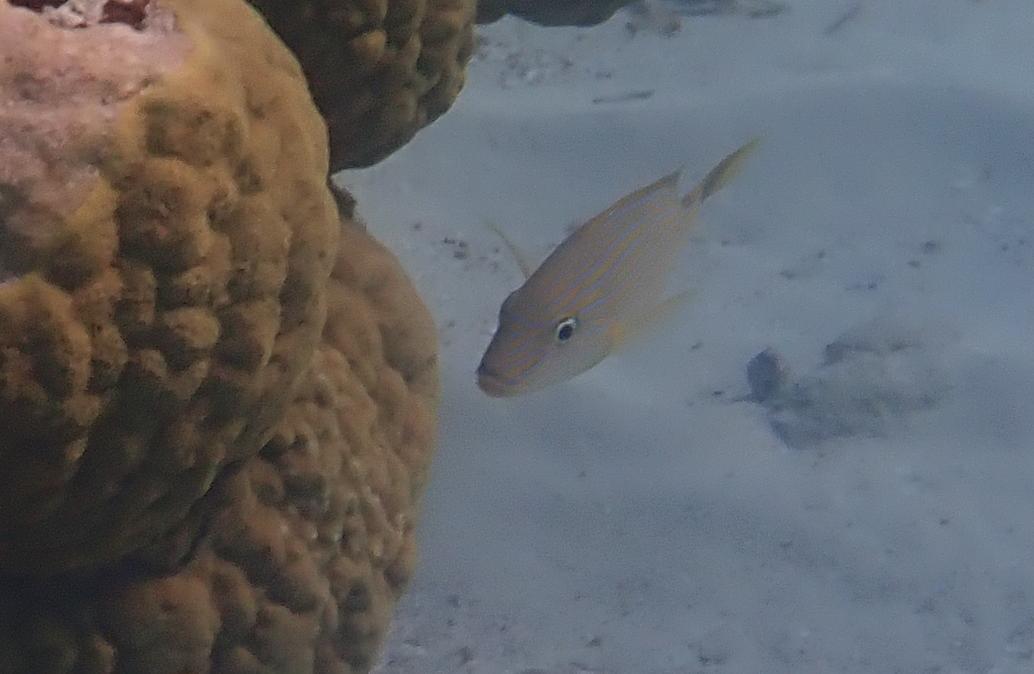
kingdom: Animalia
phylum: Chordata
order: Perciformes
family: Haemulidae
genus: Haemulon
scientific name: Haemulon sciurus
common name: Bluestriped grunt
